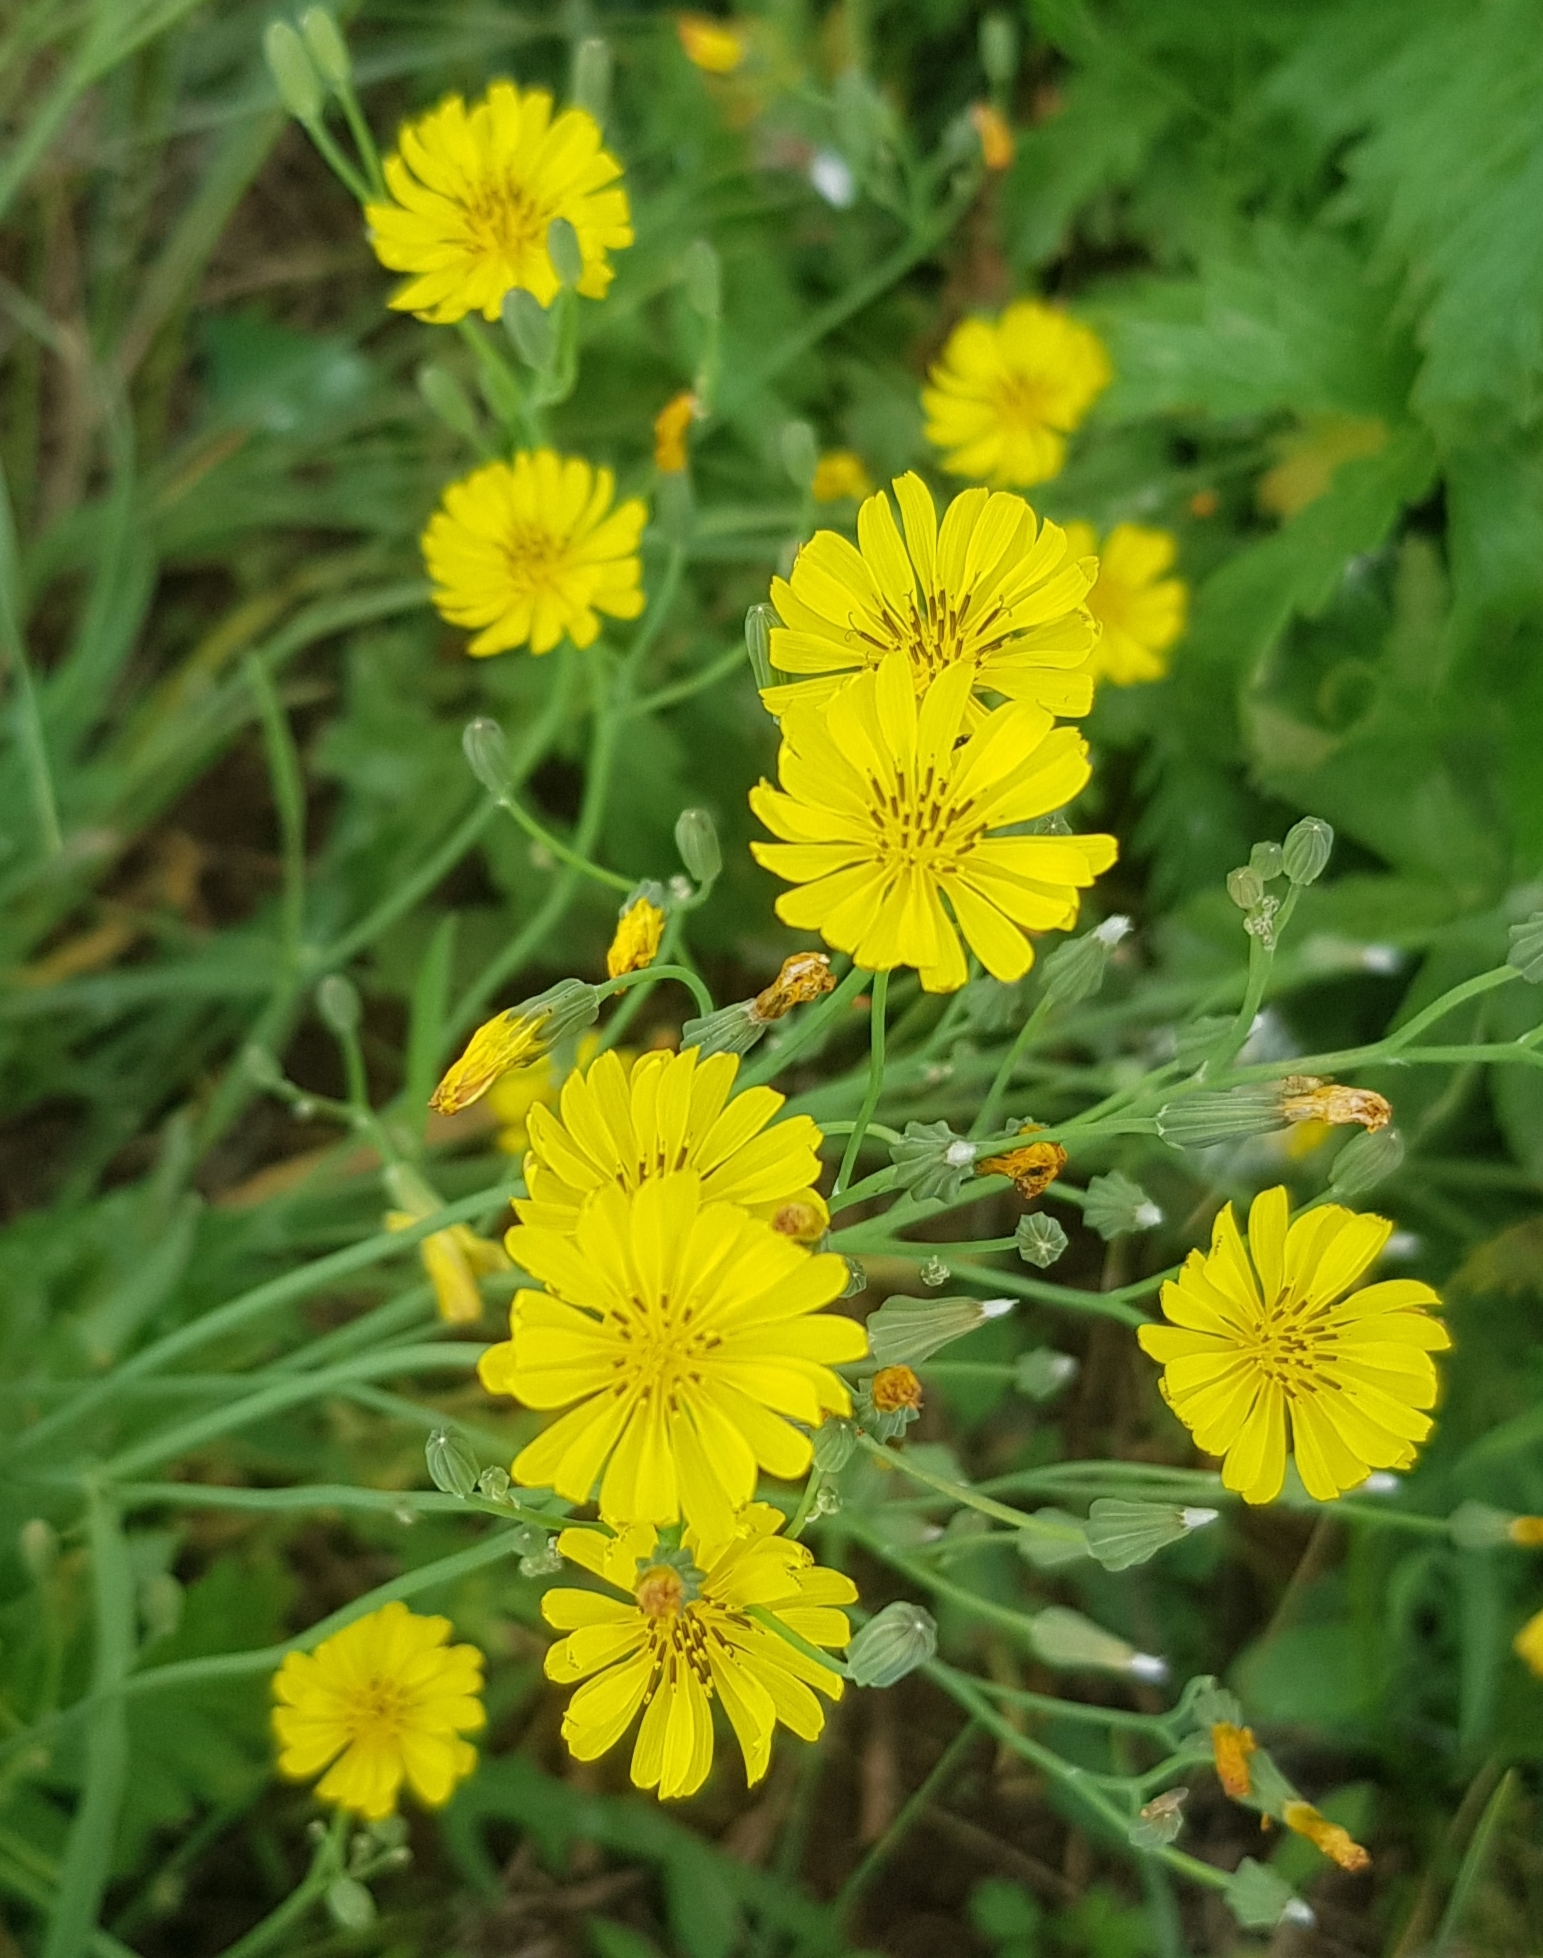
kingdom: Plantae
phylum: Tracheophyta
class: Magnoliopsida
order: Asterales
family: Asteraceae
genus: Ixeris
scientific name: Ixeris chinensis
